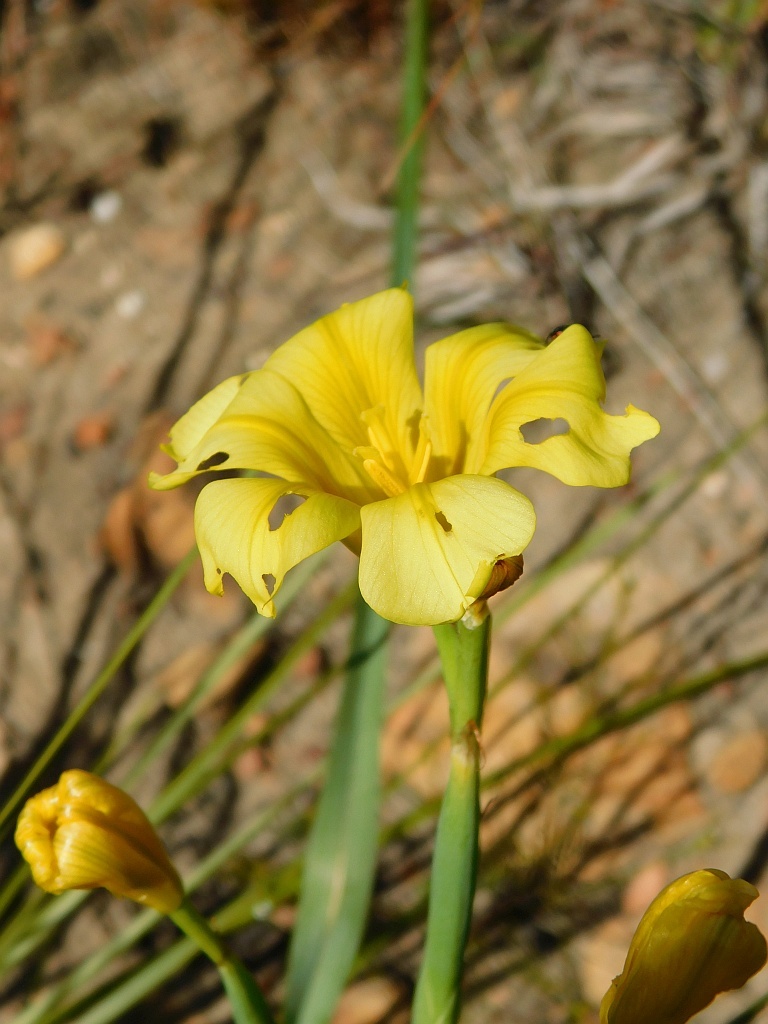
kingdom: Plantae
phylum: Tracheophyta
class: Liliopsida
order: Asparagales
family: Iridaceae
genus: Moraea
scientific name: Moraea ochroleuca
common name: Red tulp
